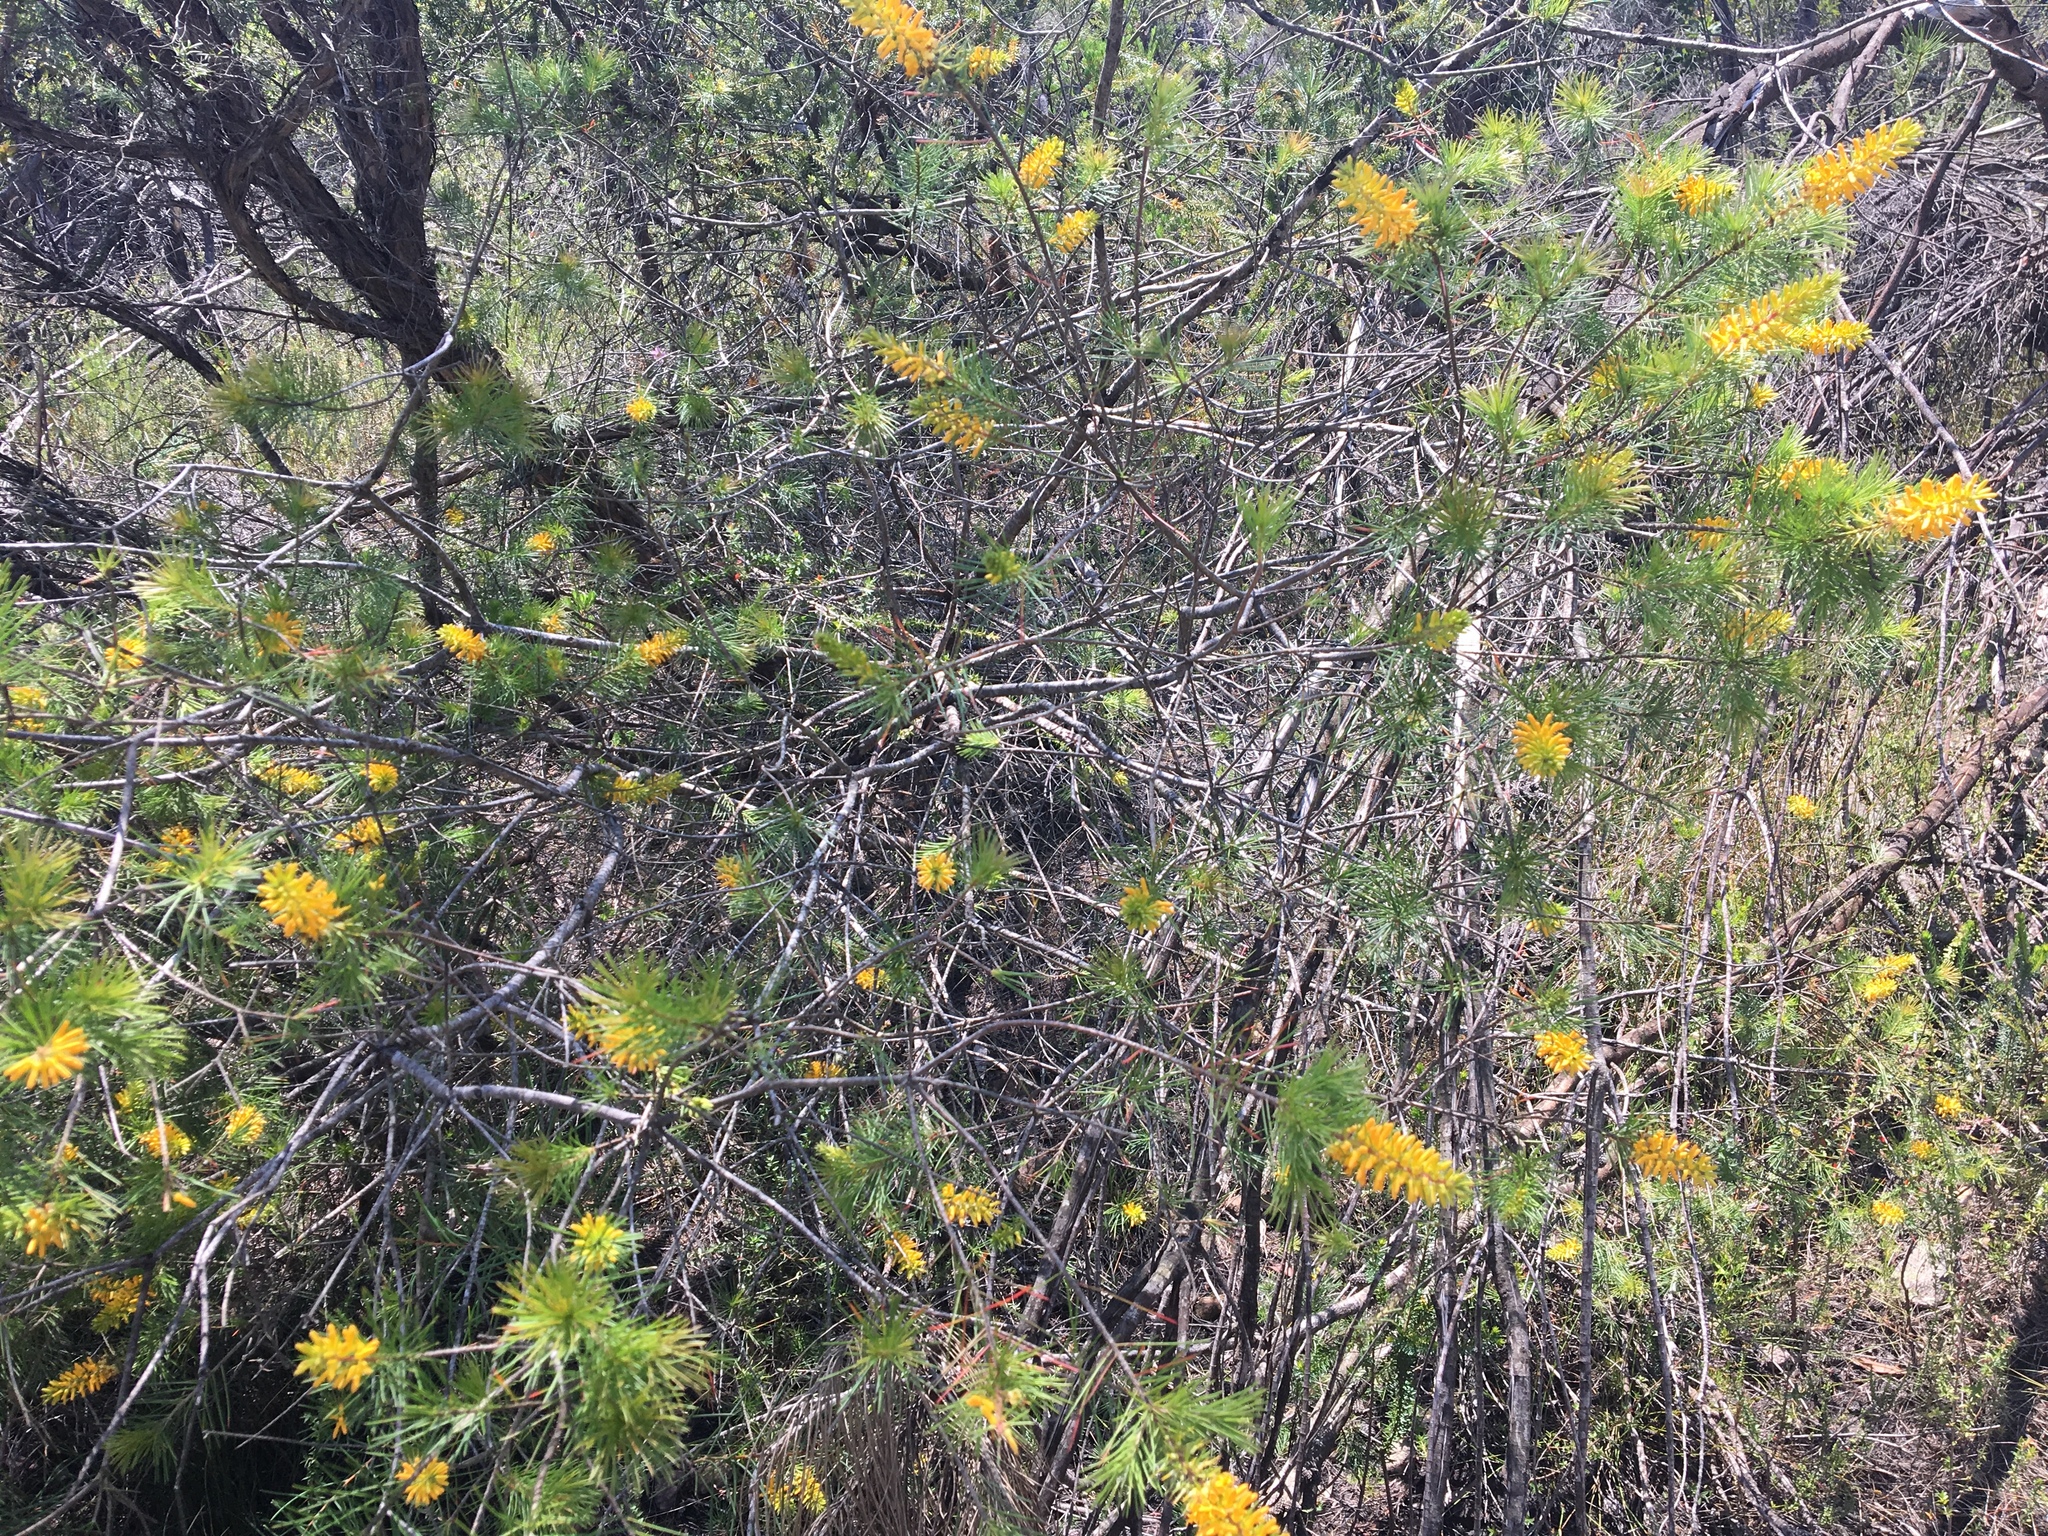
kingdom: Plantae
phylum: Tracheophyta
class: Magnoliopsida
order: Proteales
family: Proteaceae
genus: Persoonia
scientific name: Persoonia pinifolia
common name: Pine-leaf geebung
